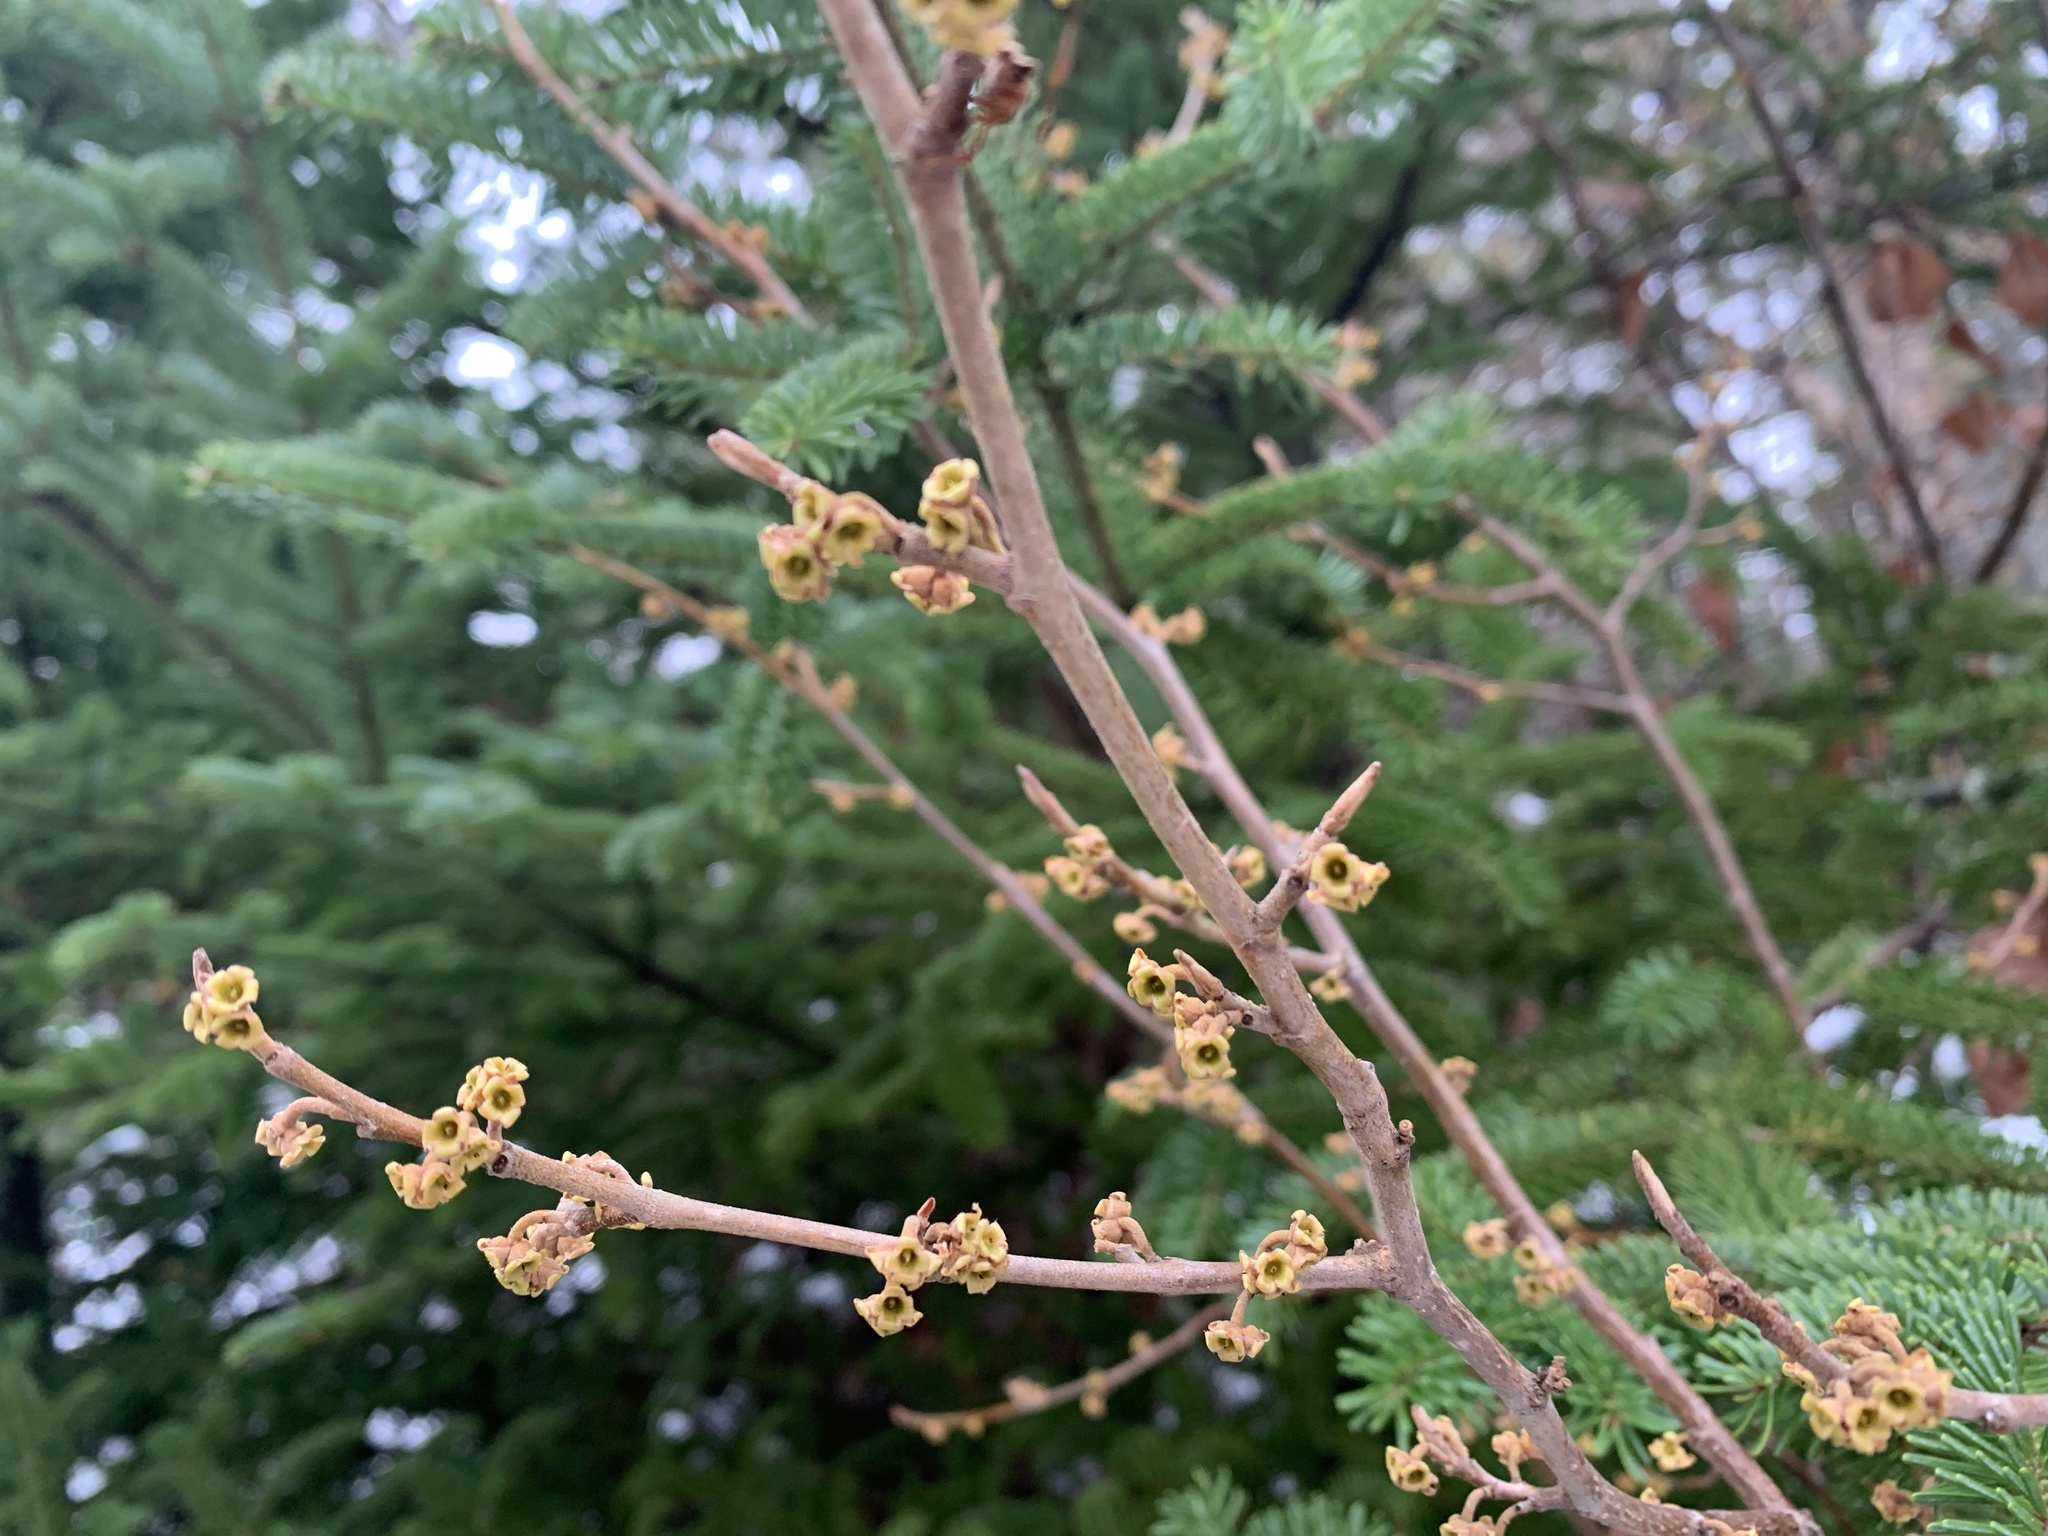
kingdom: Plantae
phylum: Tracheophyta
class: Magnoliopsida
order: Saxifragales
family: Hamamelidaceae
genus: Hamamelis
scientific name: Hamamelis virginiana
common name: Witch-hazel
